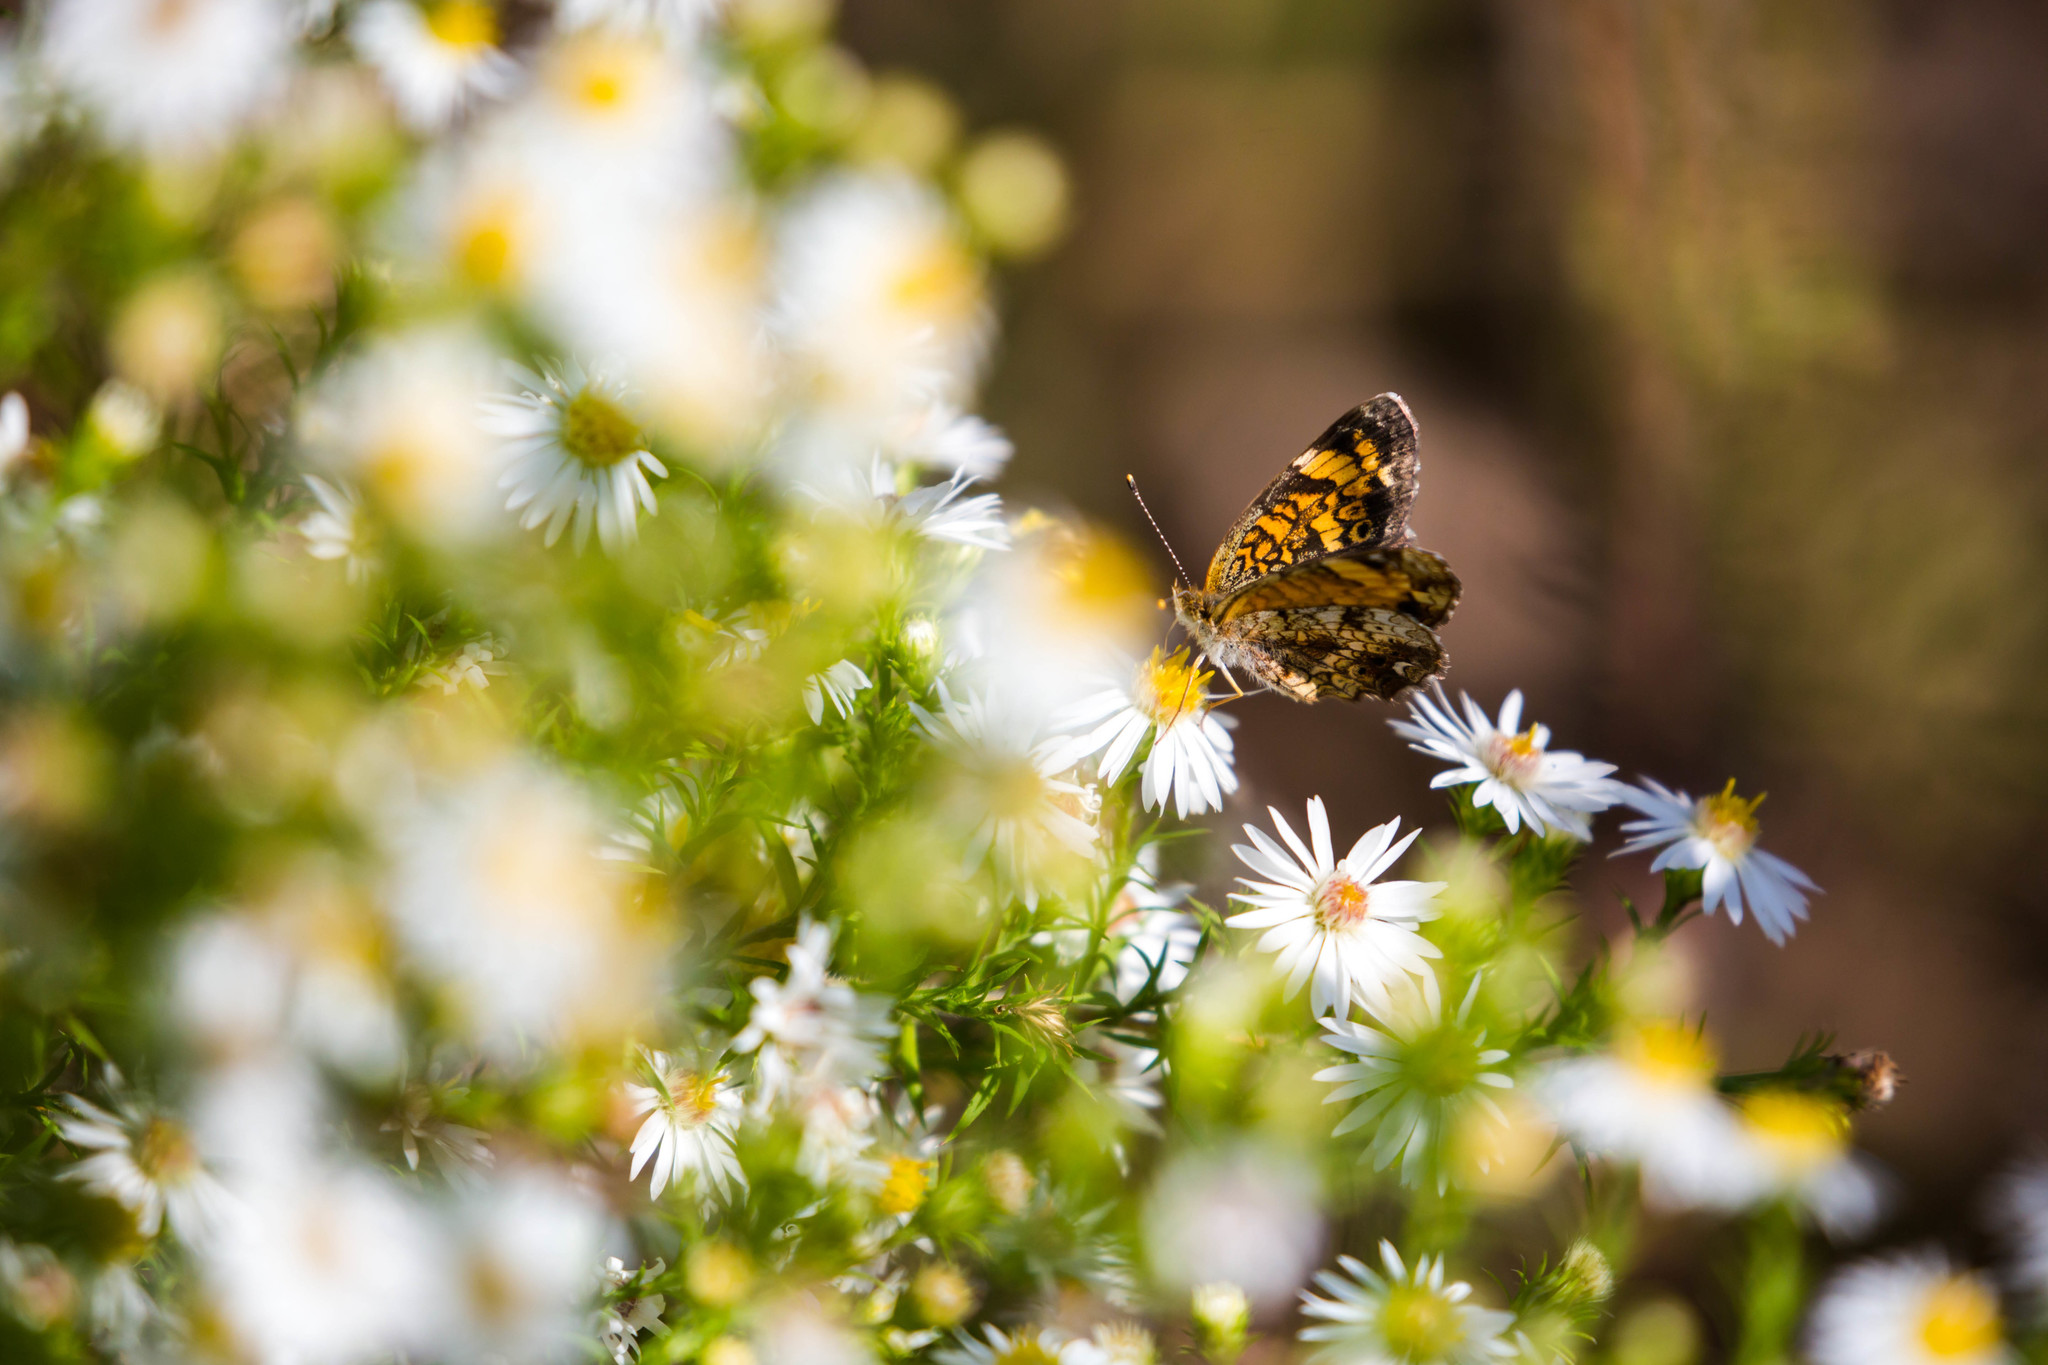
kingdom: Animalia
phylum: Arthropoda
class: Insecta
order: Lepidoptera
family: Nymphalidae
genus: Phyciodes
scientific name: Phyciodes tharos
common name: Pearl crescent
